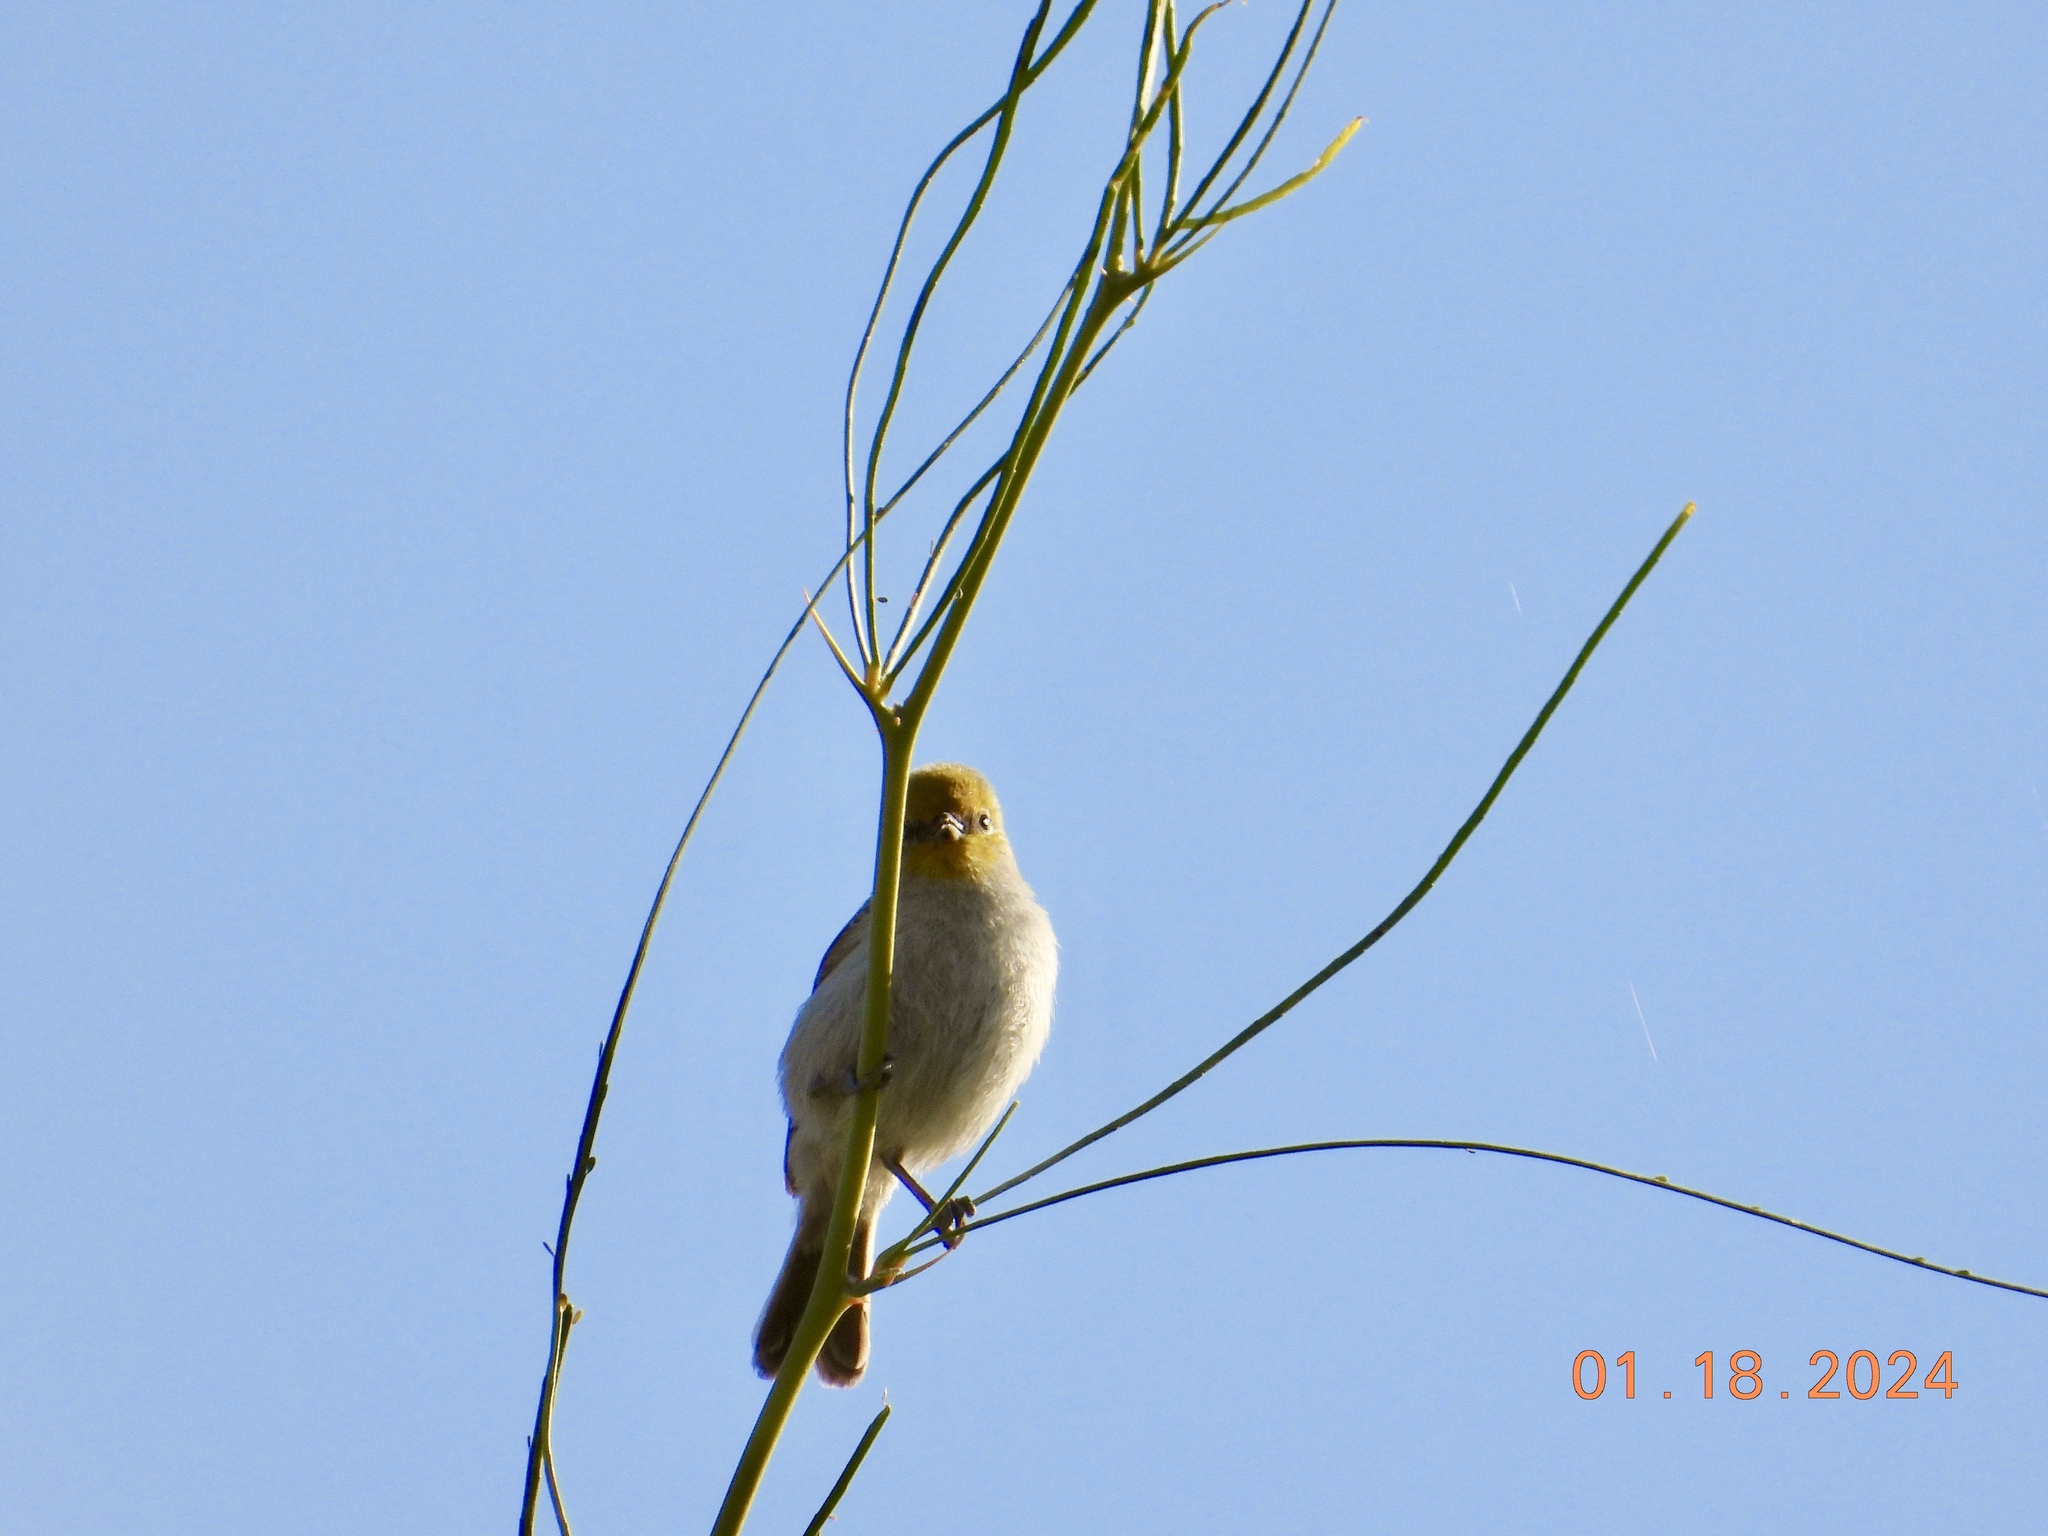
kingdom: Animalia
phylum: Chordata
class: Aves
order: Passeriformes
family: Remizidae
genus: Auriparus
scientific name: Auriparus flaviceps
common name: Verdin
